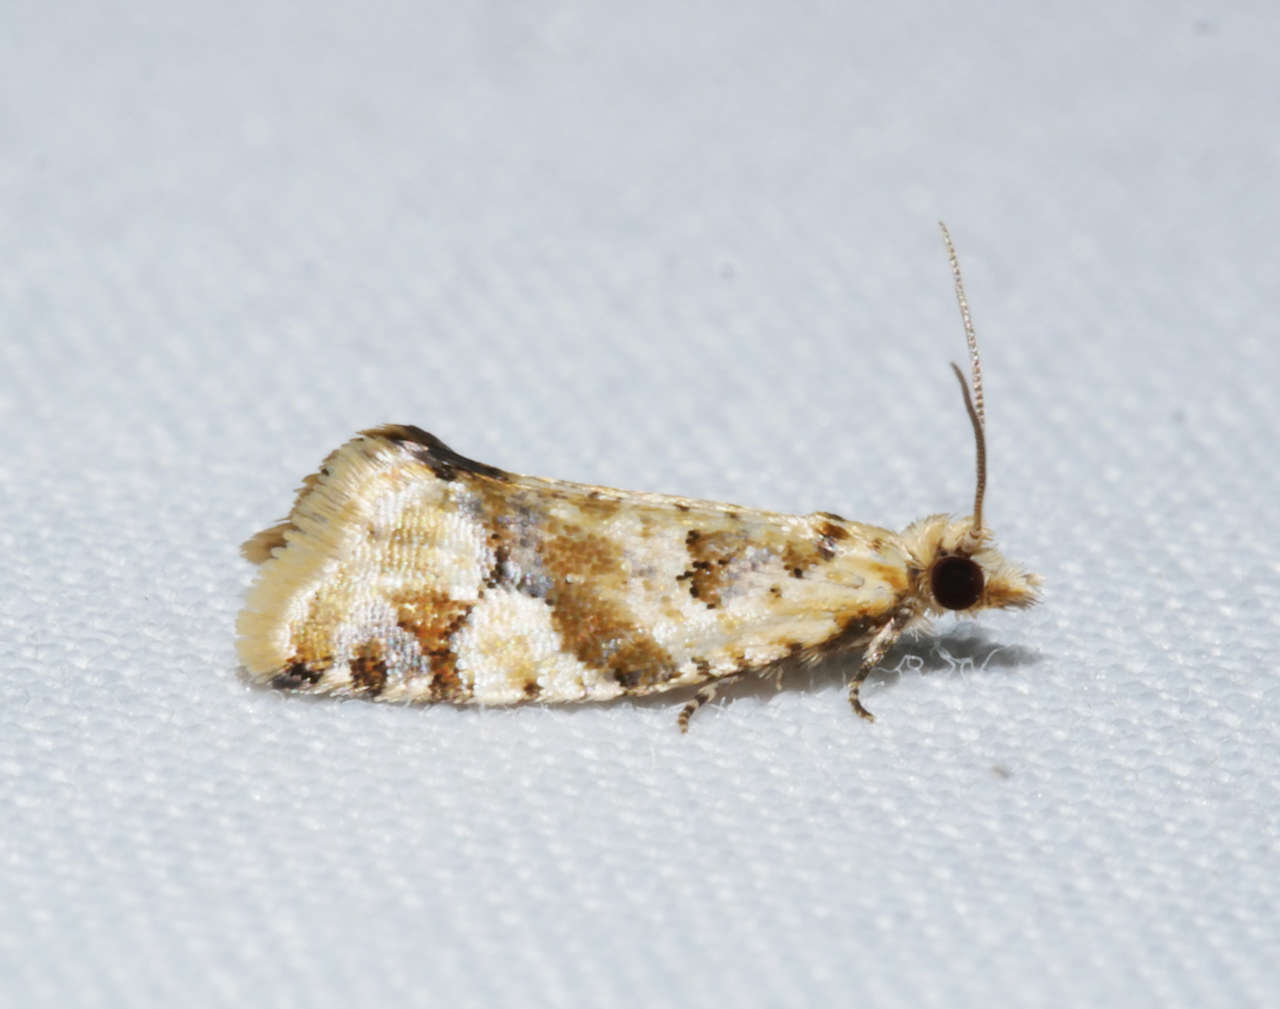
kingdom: Animalia
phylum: Arthropoda
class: Insecta
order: Lepidoptera
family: Tortricidae
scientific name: Tortricidae
